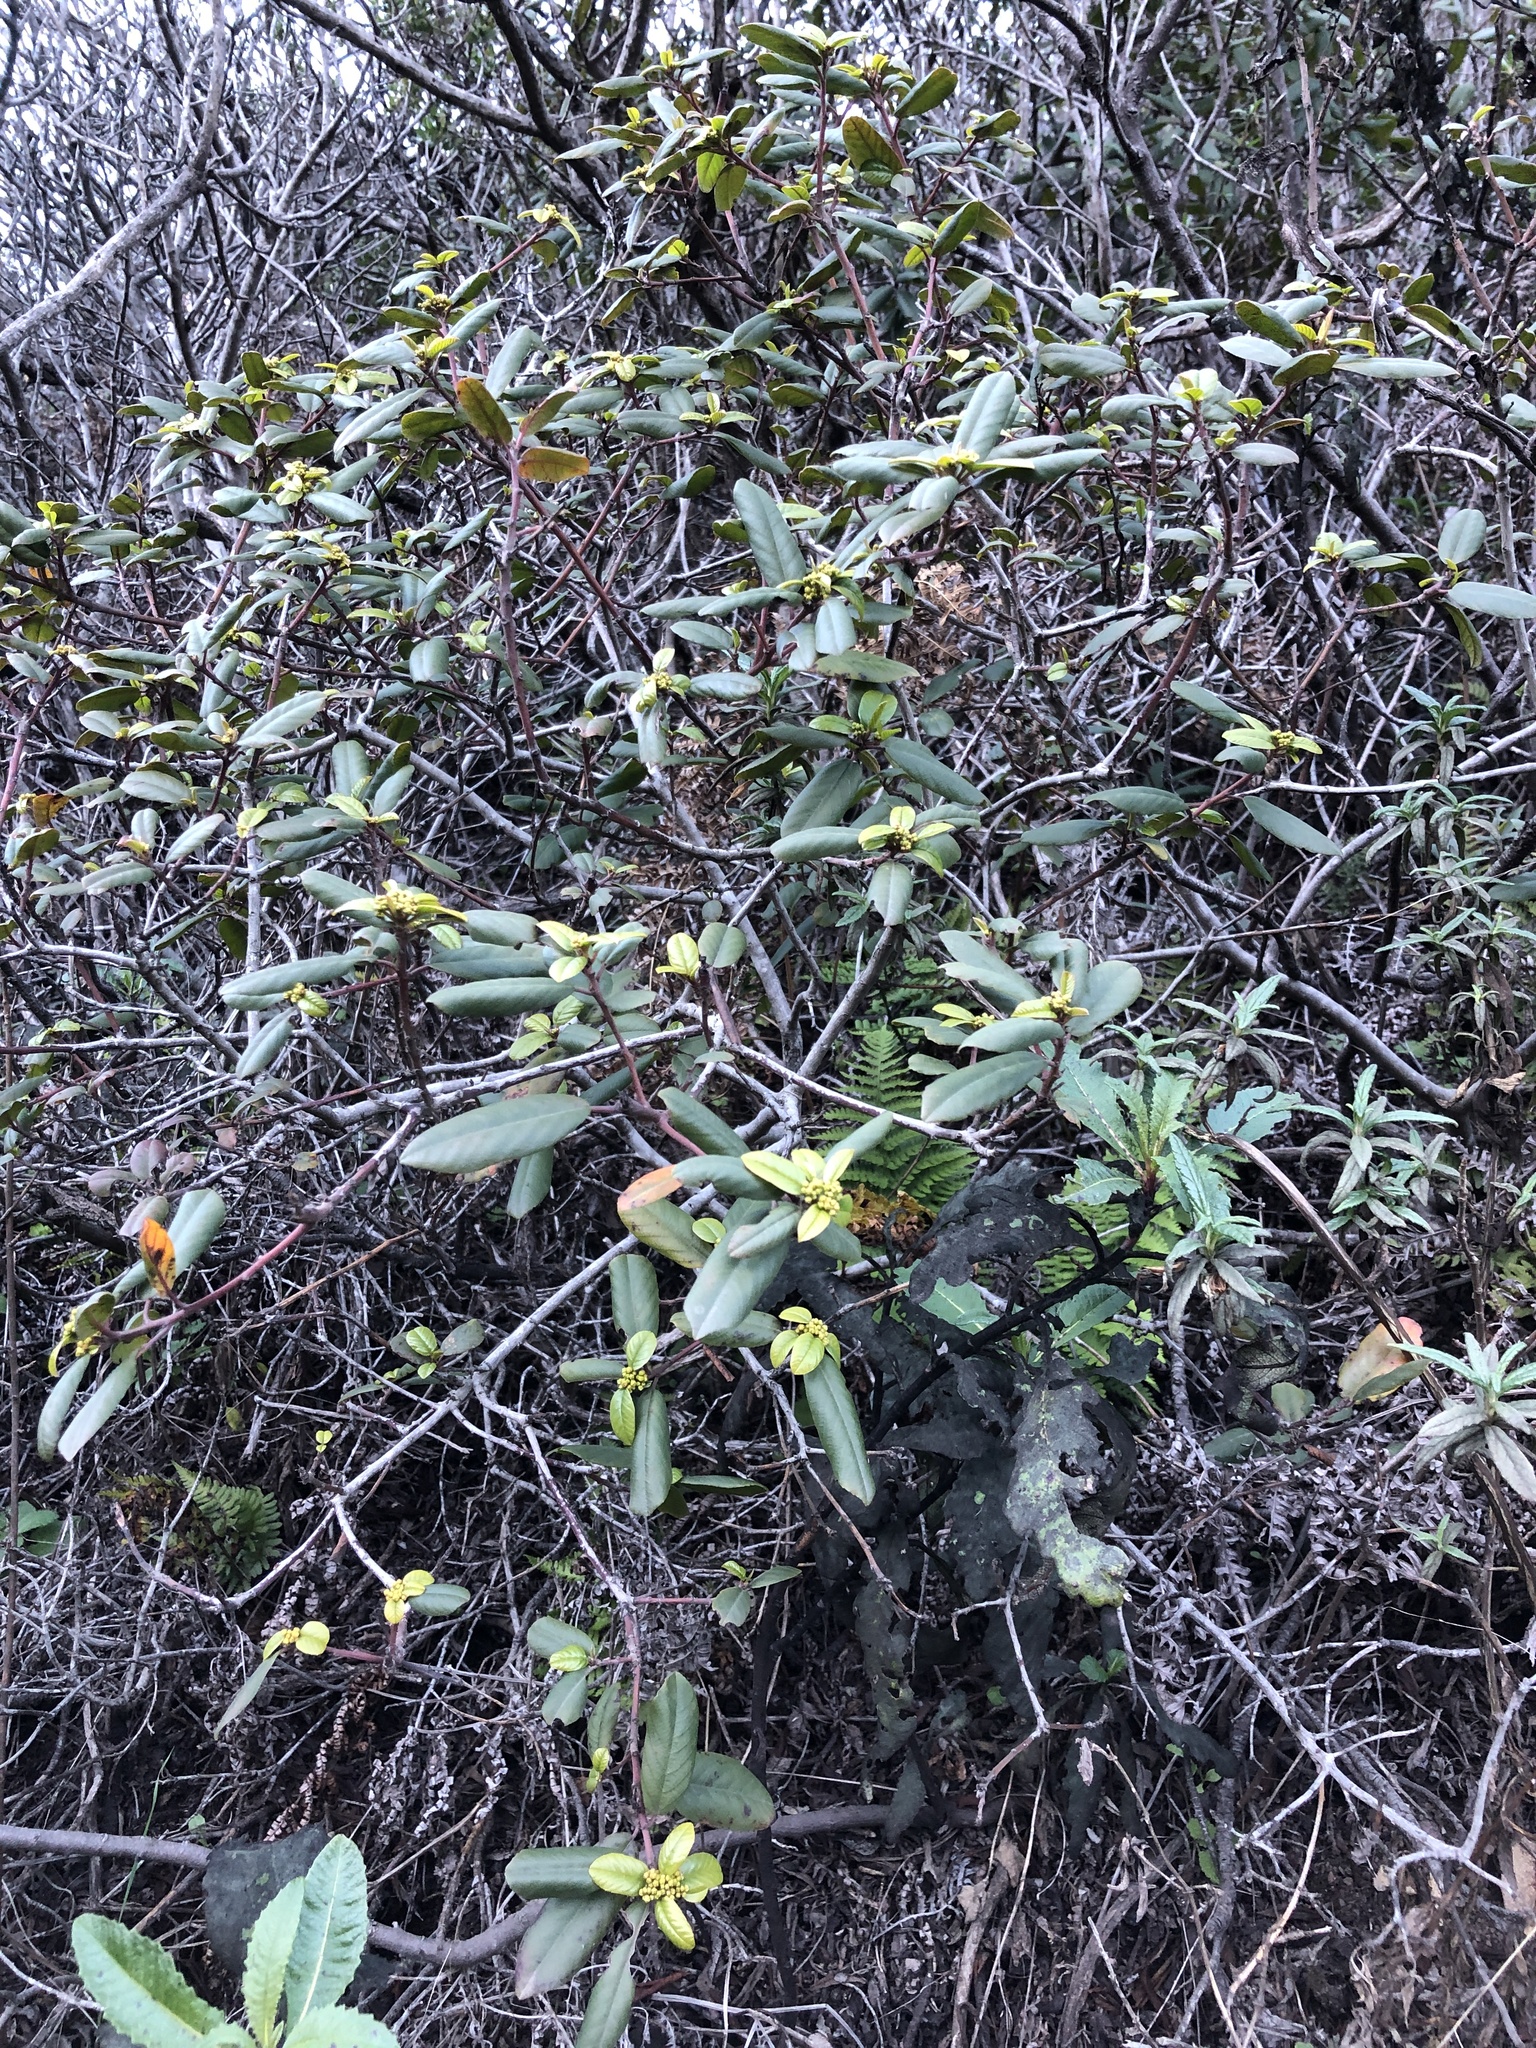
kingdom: Plantae
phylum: Tracheophyta
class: Magnoliopsida
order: Rosales
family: Rhamnaceae
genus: Frangula
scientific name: Frangula californica
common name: California buckthorn
